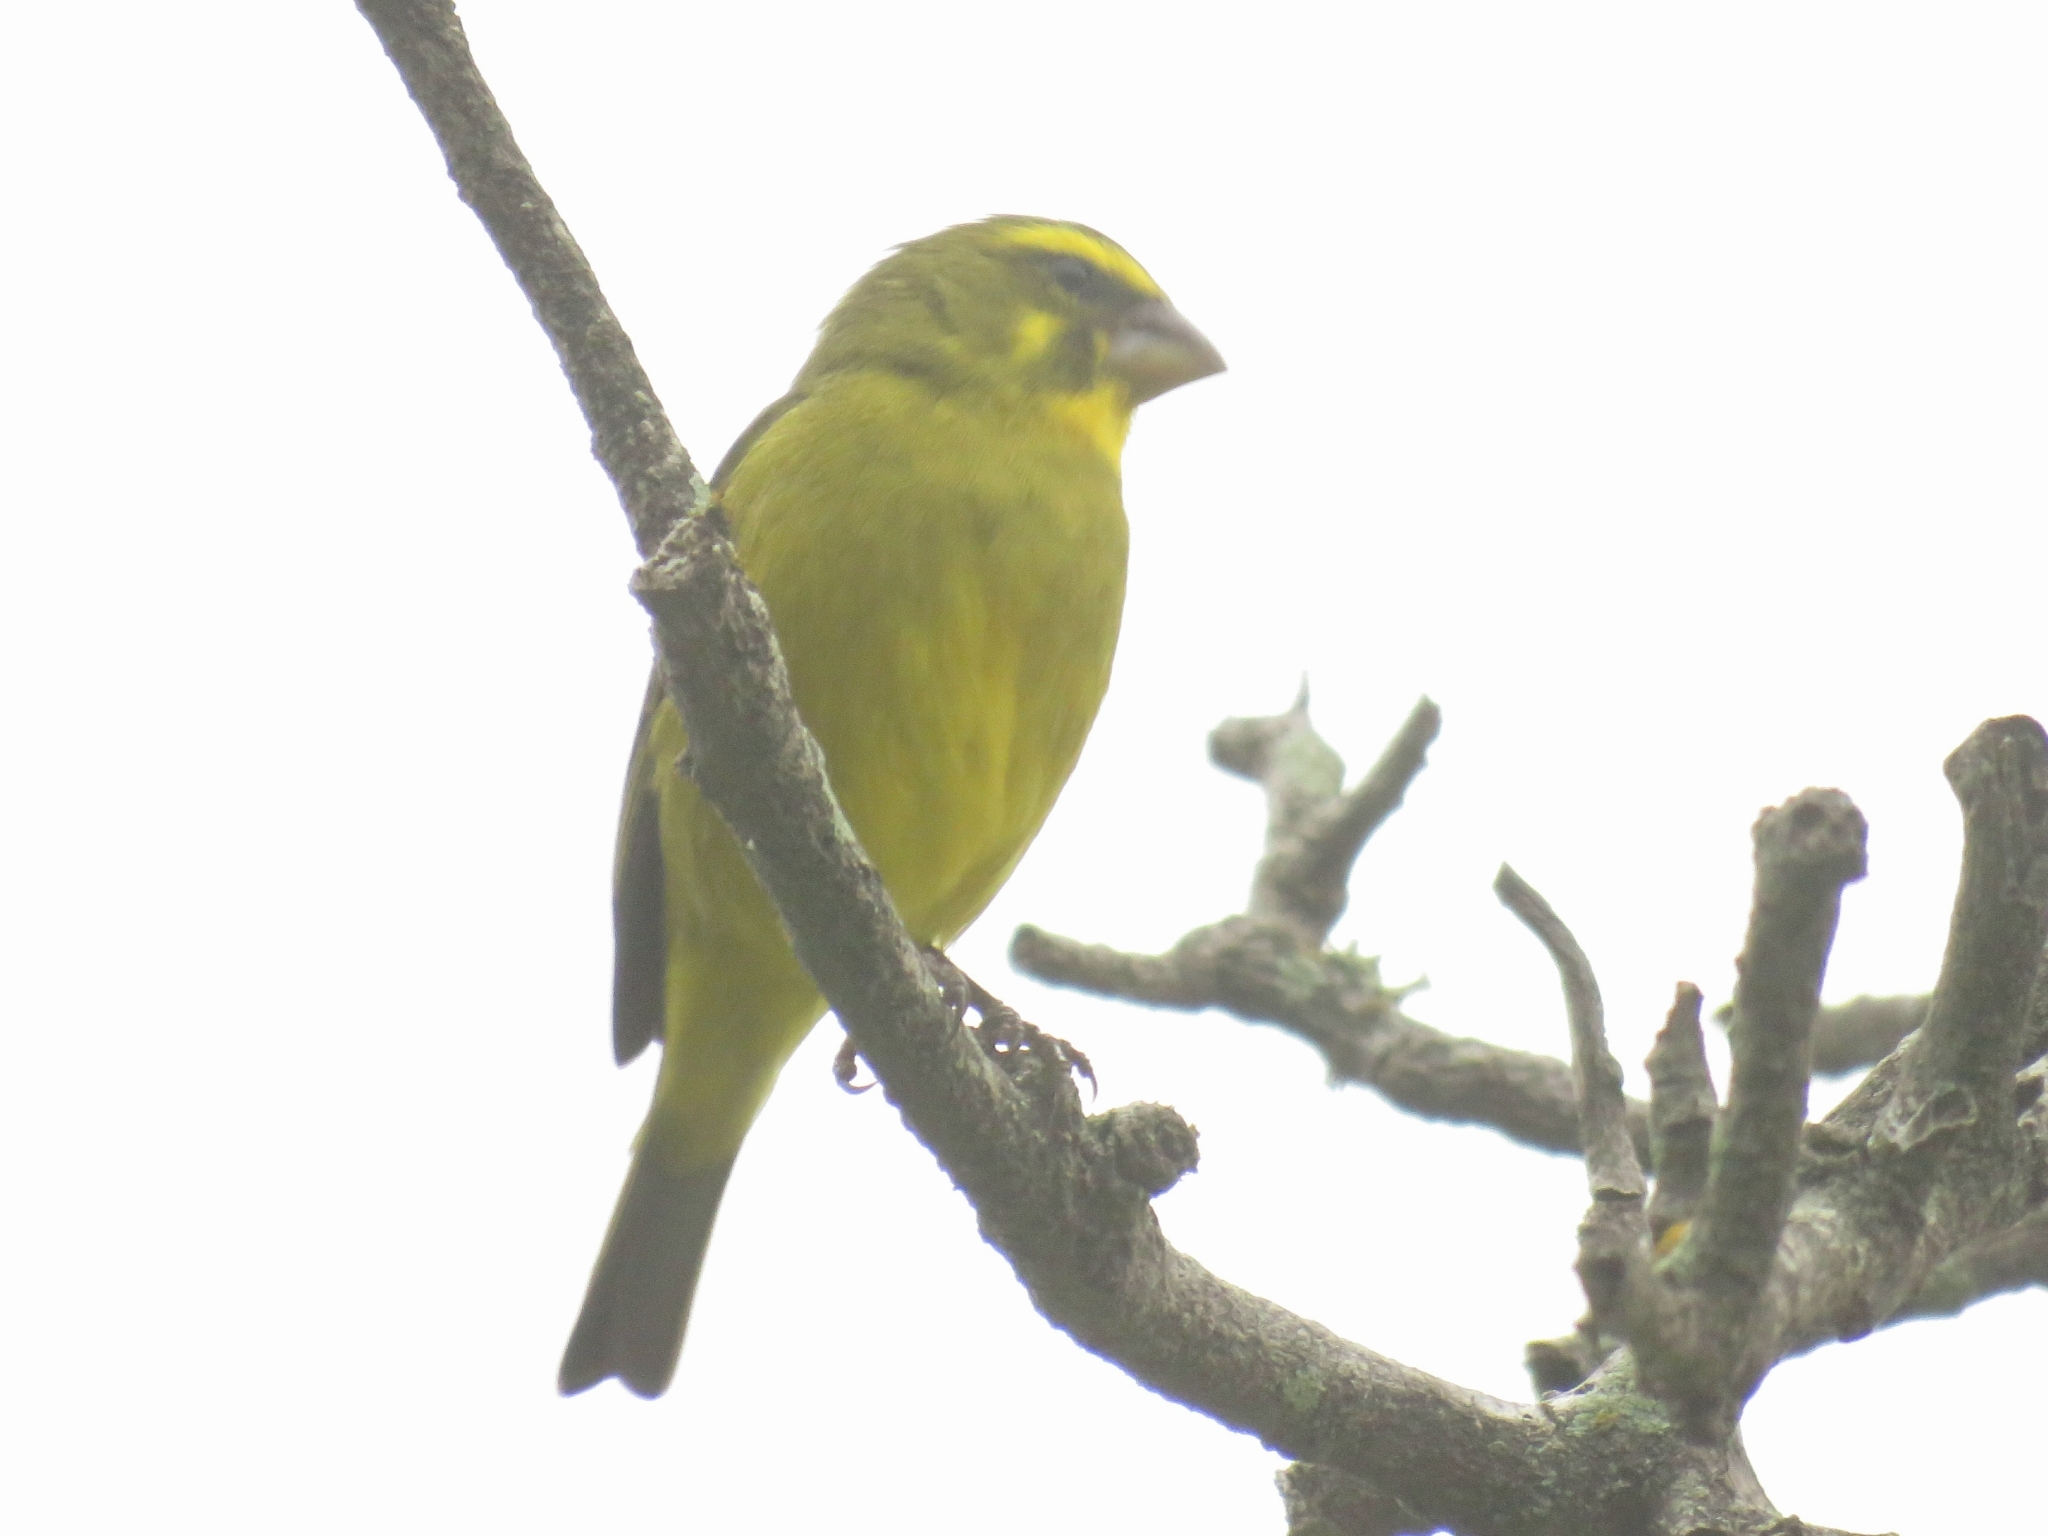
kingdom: Animalia
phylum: Chordata
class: Aves
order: Passeriformes
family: Fringillidae
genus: Crithagra
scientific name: Crithagra sulphurata
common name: Brimstone canary
